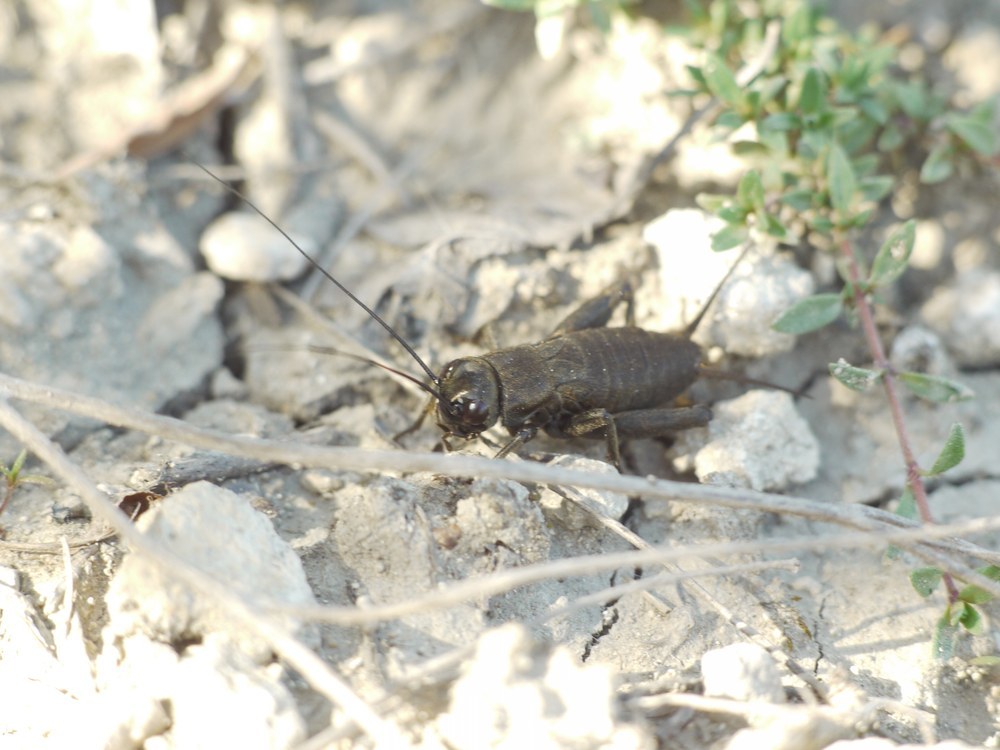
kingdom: Animalia
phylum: Arthropoda
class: Insecta
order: Orthoptera
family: Gryllidae
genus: Melanogryllus
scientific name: Melanogryllus desertus
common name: Desert cricket
